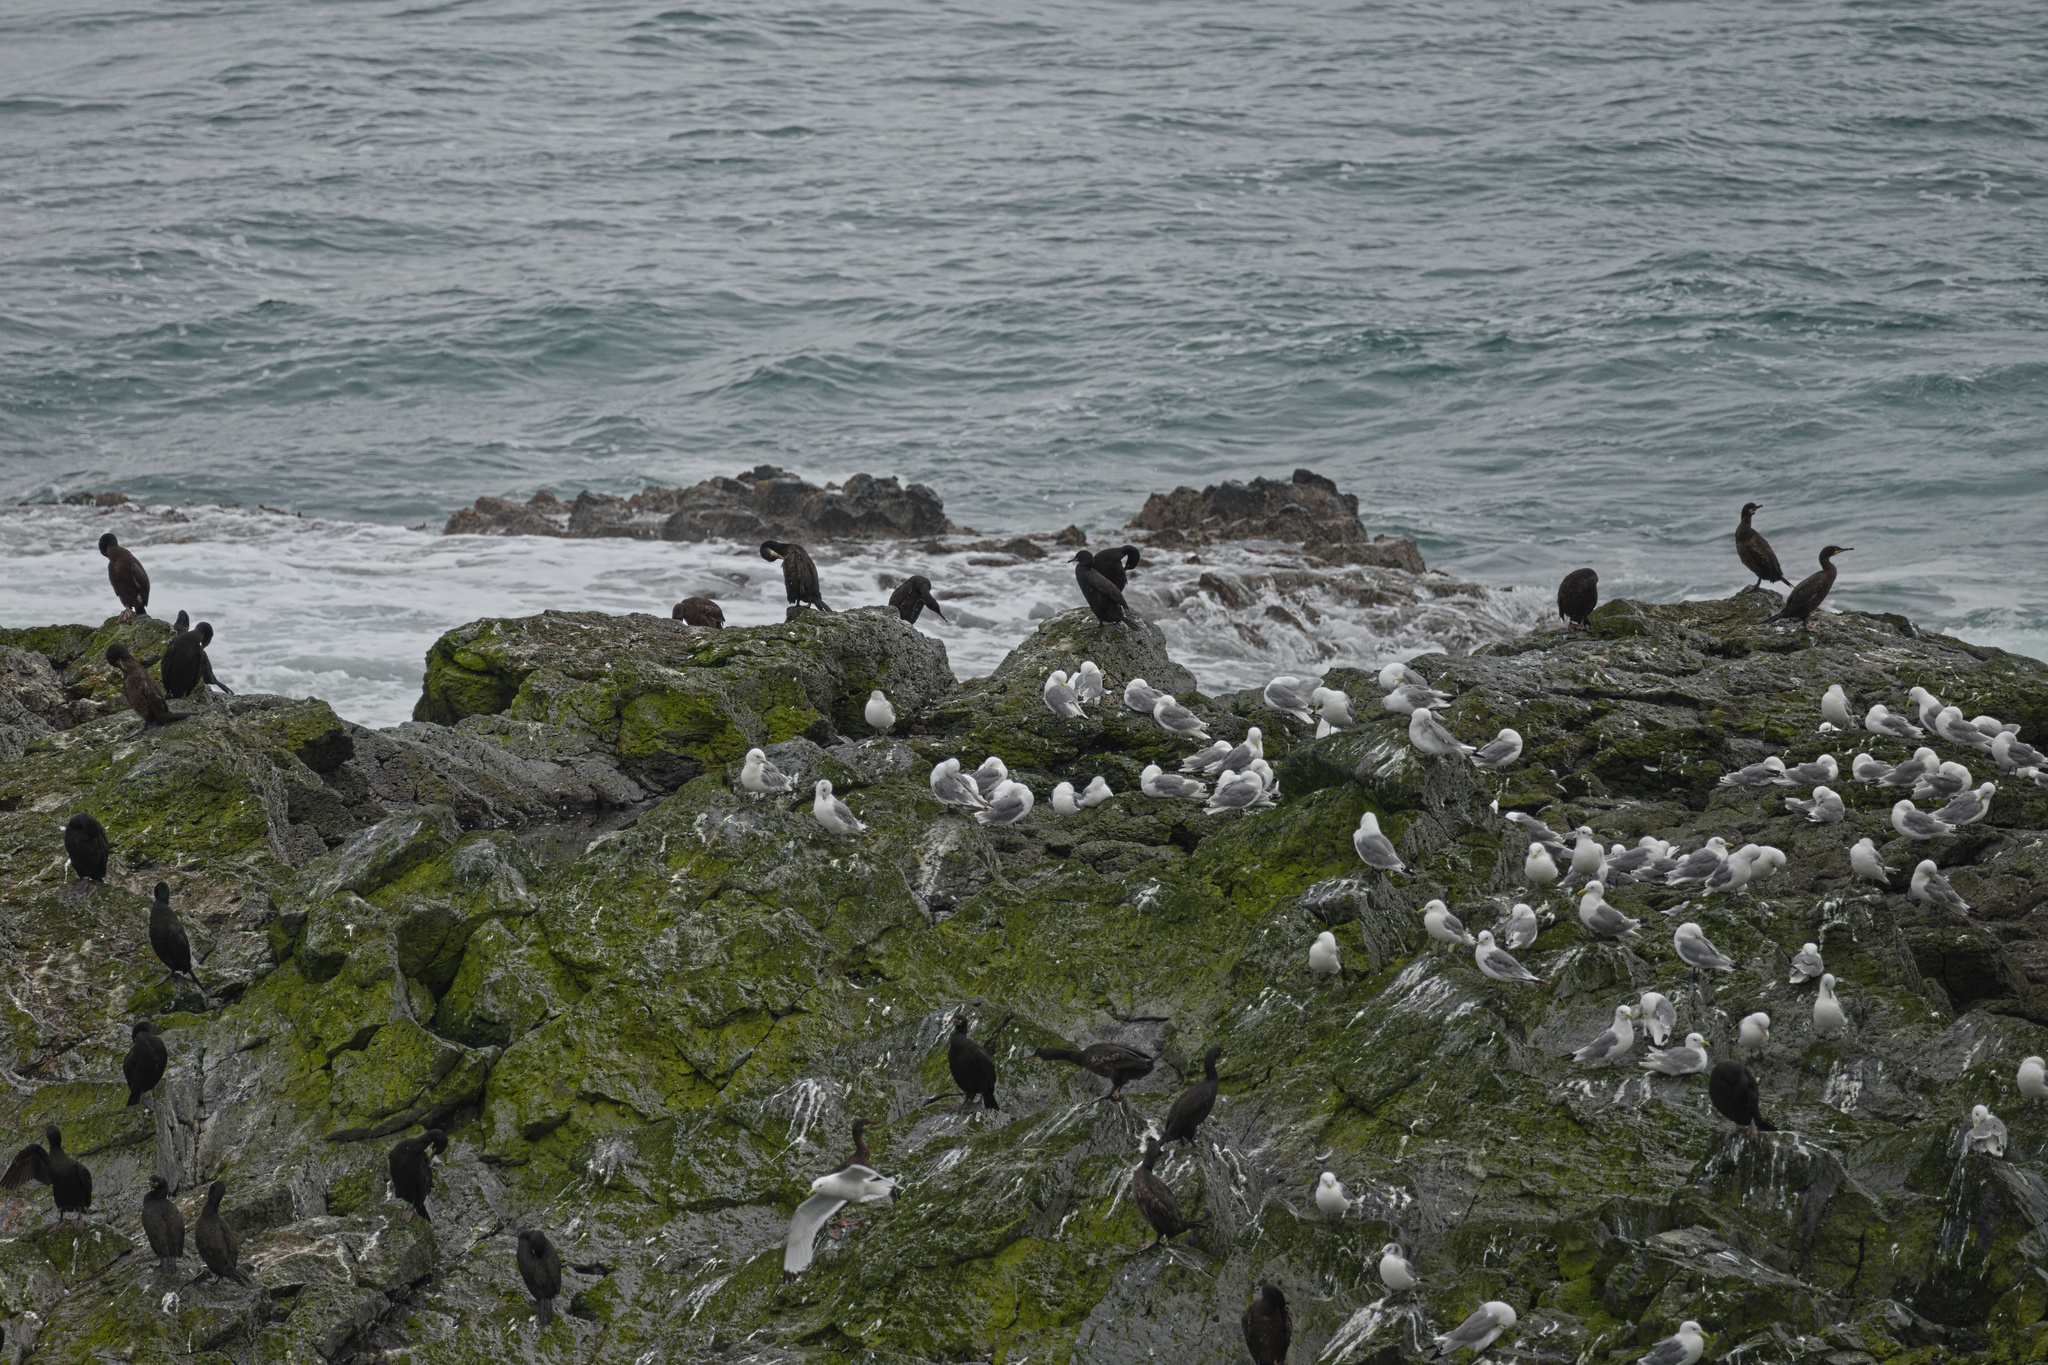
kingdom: Animalia
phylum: Chordata
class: Aves
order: Suliformes
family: Phalacrocoracidae
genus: Phalacrocorax
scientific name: Phalacrocorax aristotelis
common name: European shag
